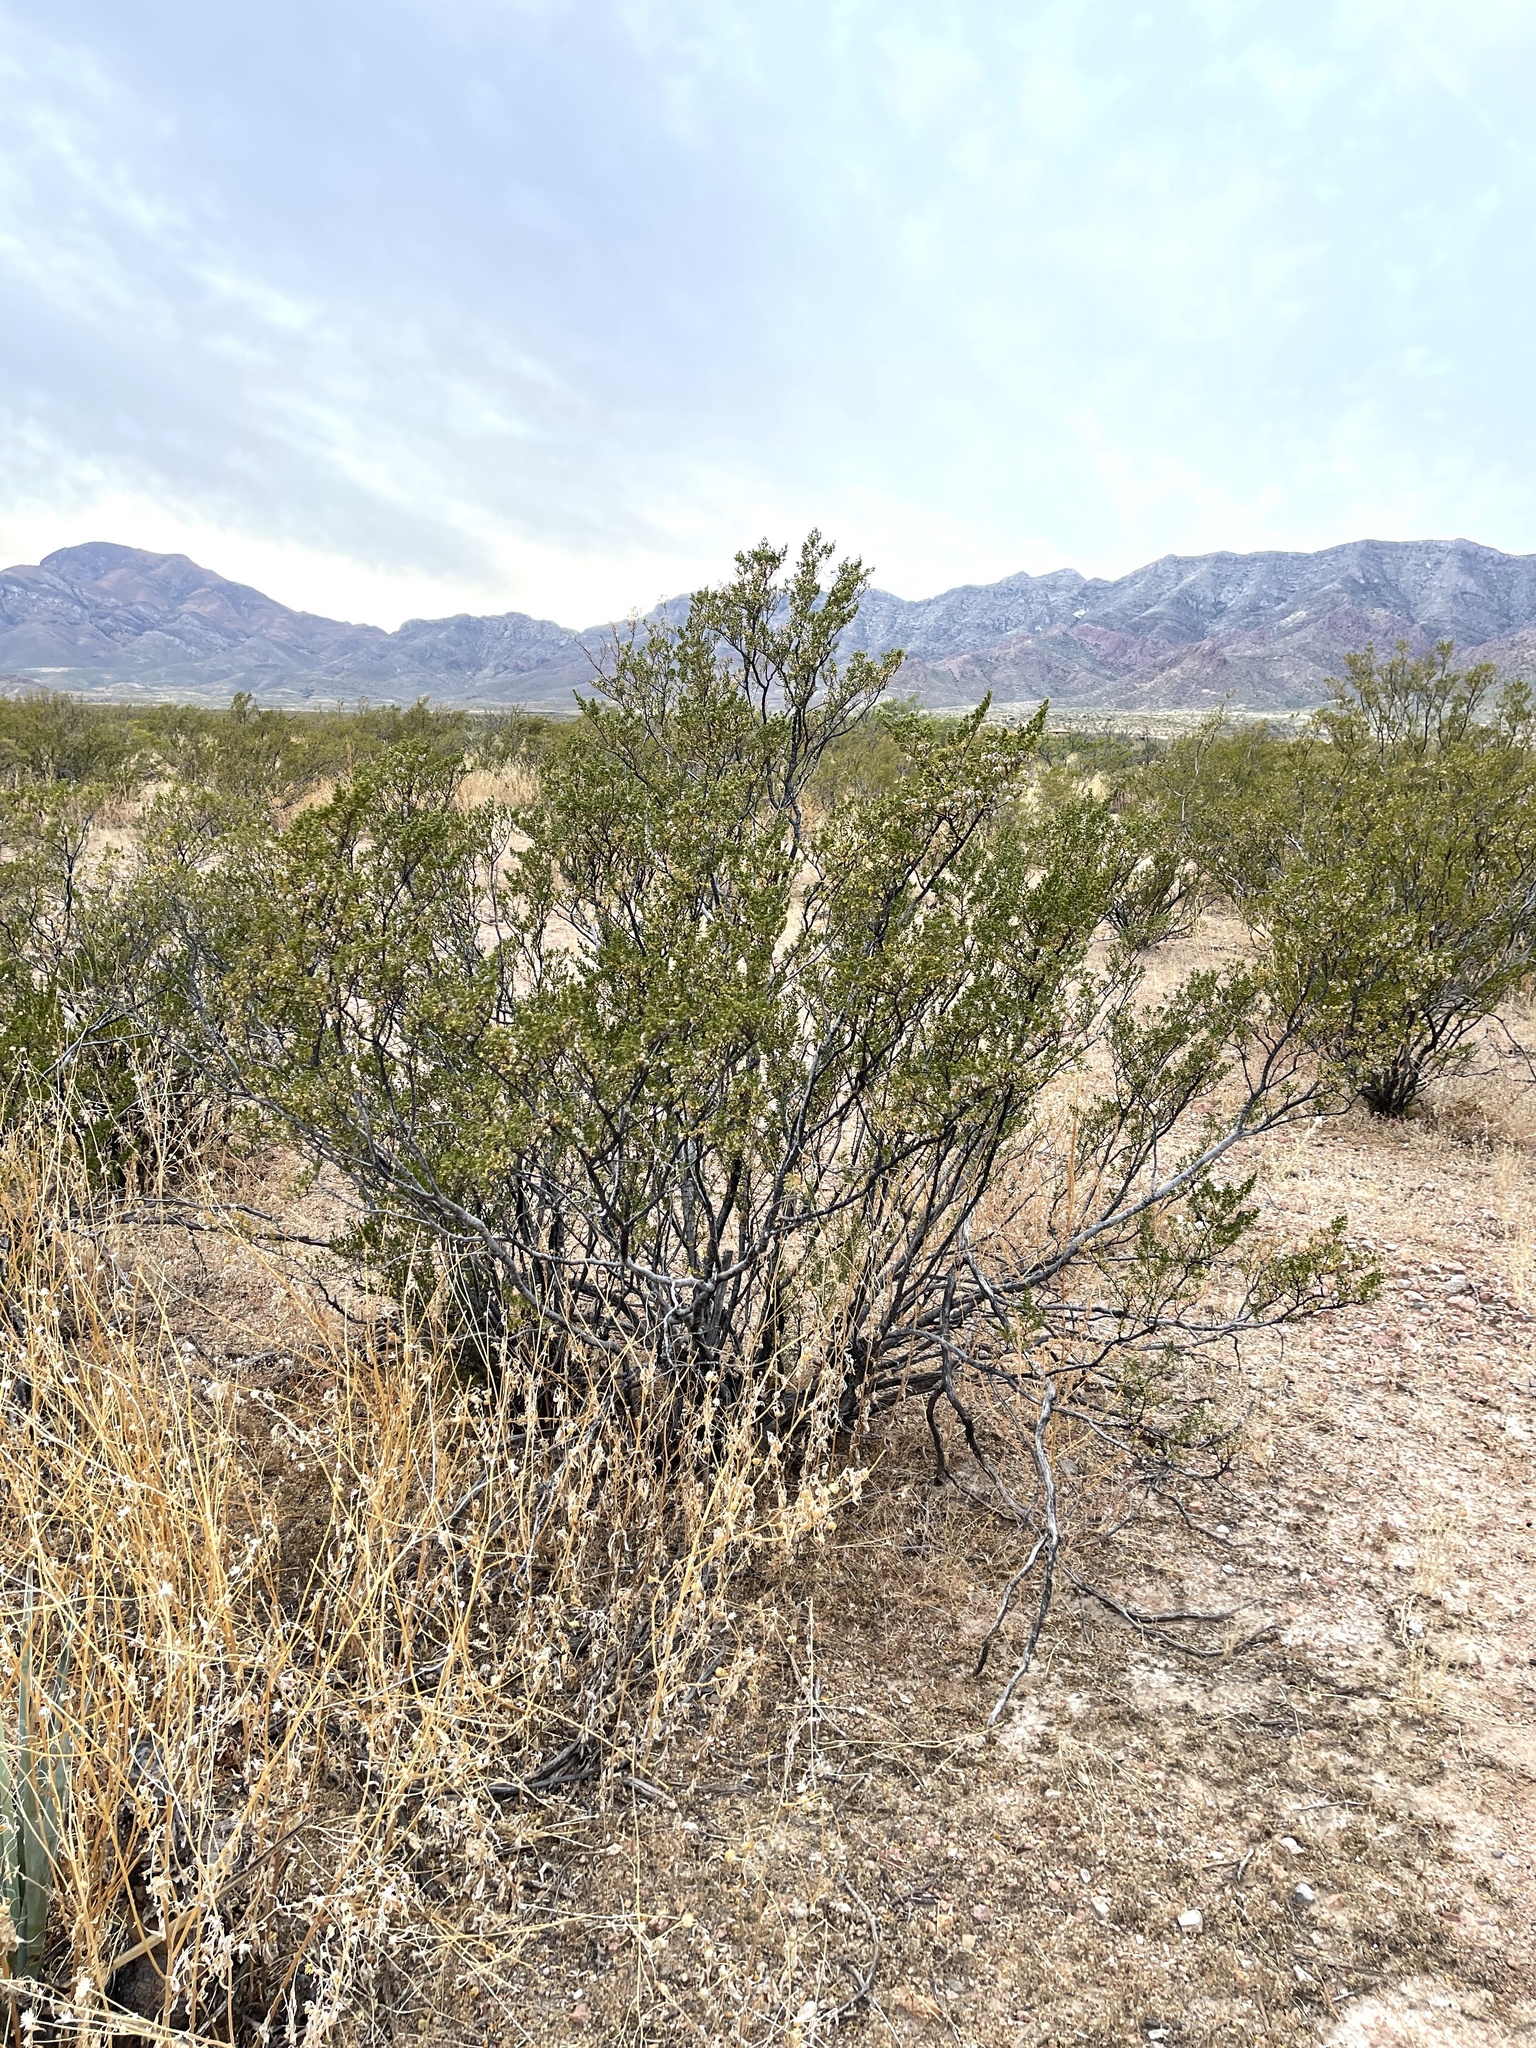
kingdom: Plantae
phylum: Tracheophyta
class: Magnoliopsida
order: Zygophyllales
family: Zygophyllaceae
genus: Larrea
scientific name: Larrea tridentata
